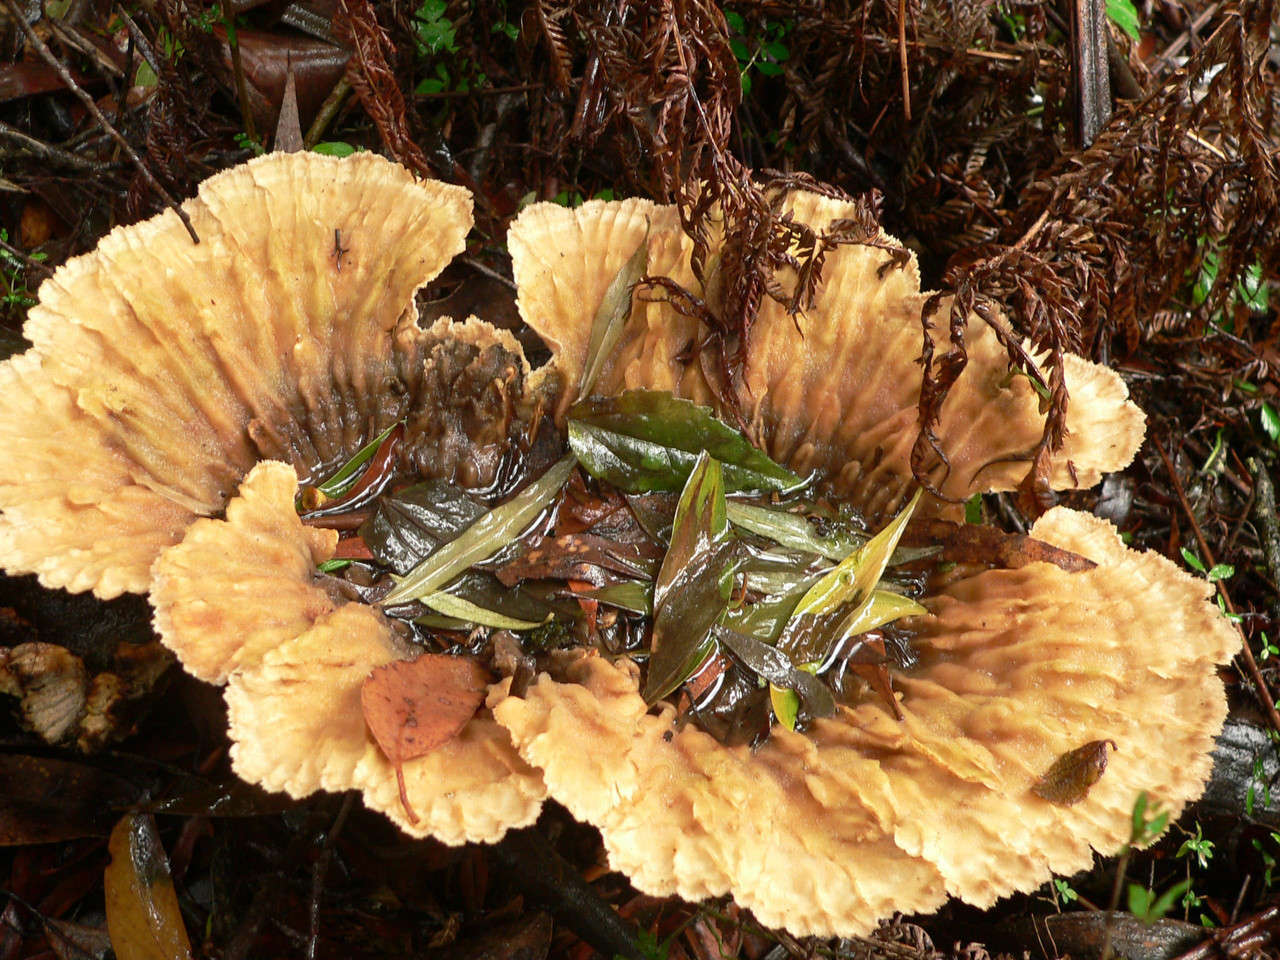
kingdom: Fungi
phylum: Basidiomycota
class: Agaricomycetes
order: Polyporales
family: Panaceae
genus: Cymatoderma
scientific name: Cymatoderma elegans
